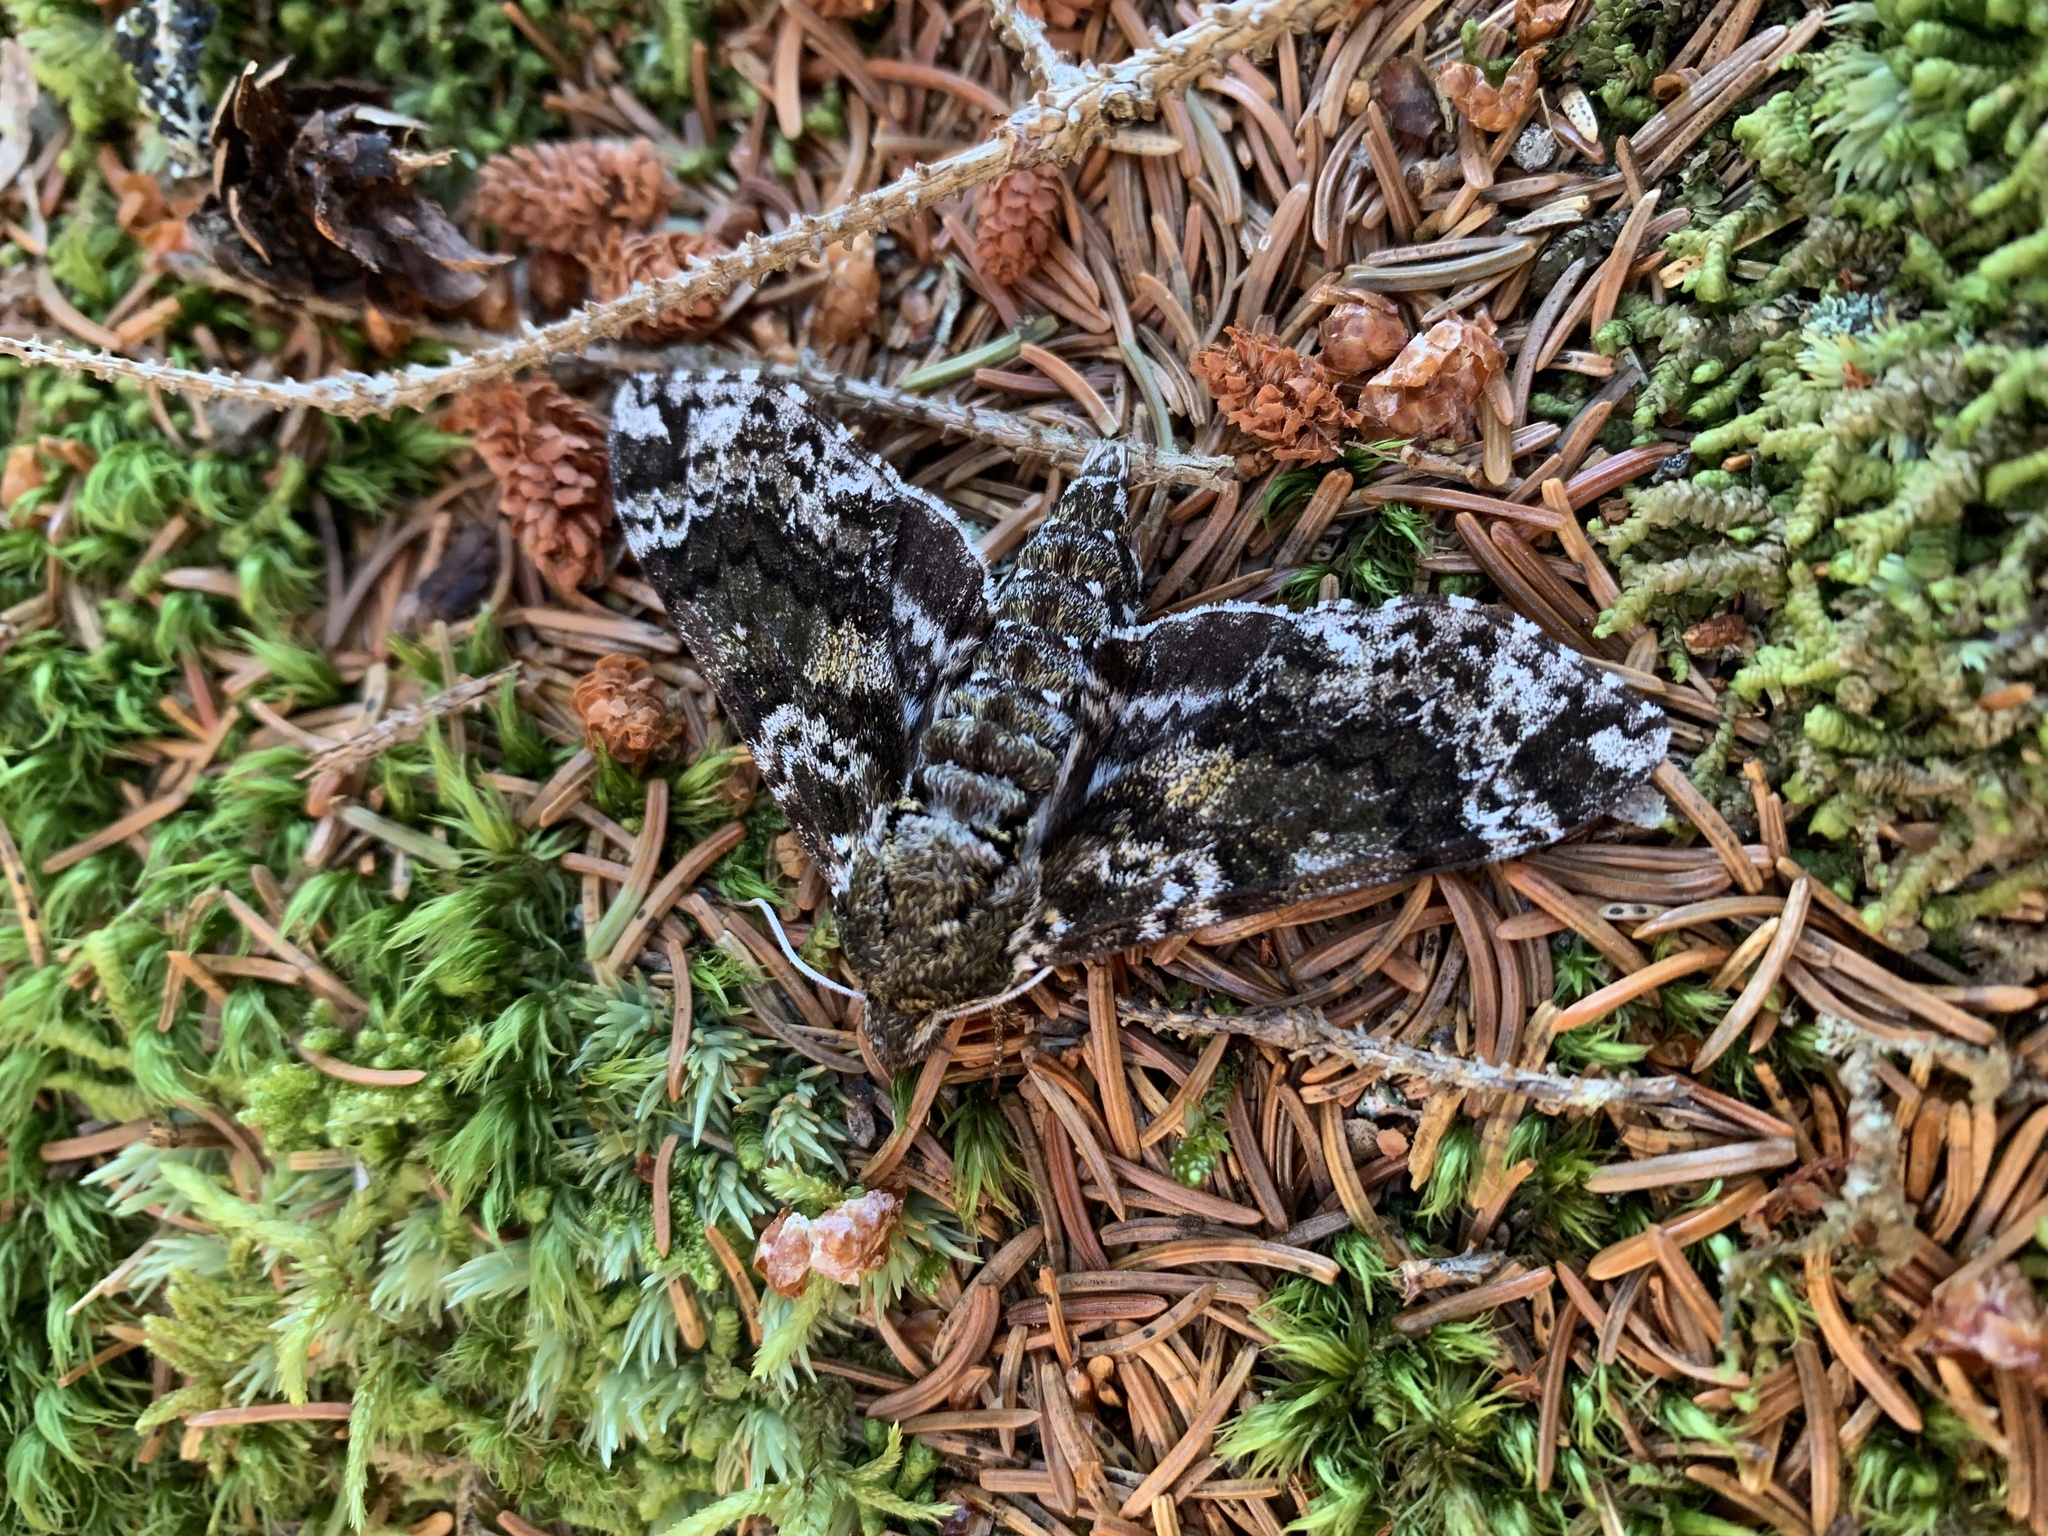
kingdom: Animalia
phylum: Arthropoda
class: Insecta
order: Lepidoptera
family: Sphingidae
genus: Dolba
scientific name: Dolba hyloeus
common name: Pawpaw sphinx
